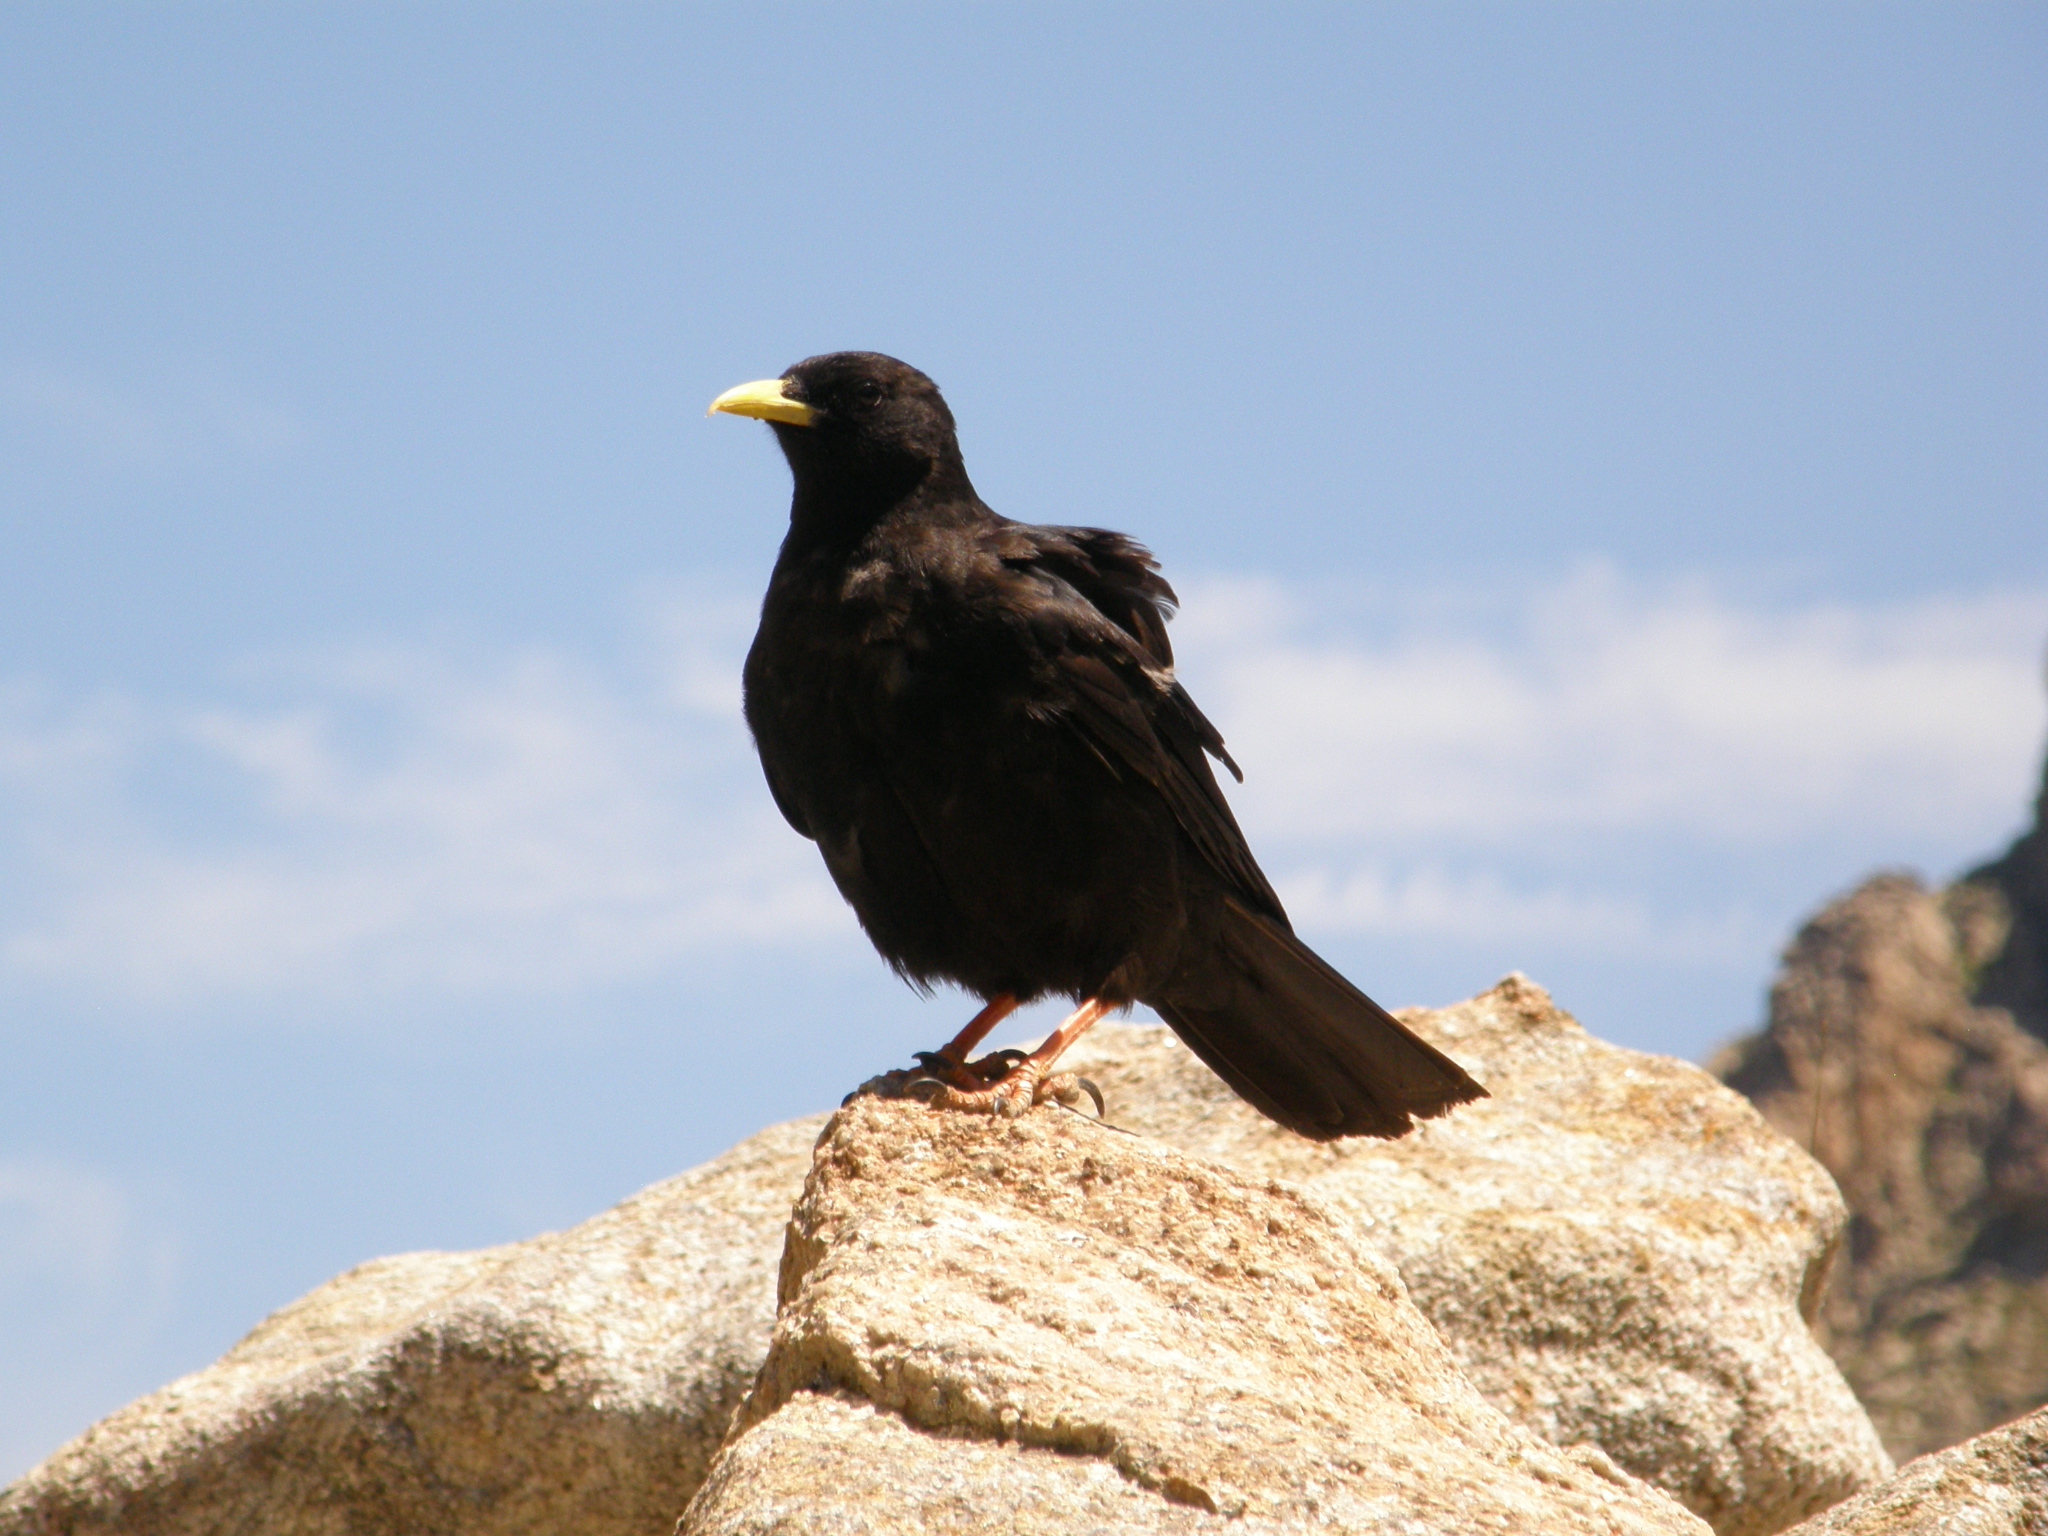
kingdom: Animalia
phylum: Chordata
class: Aves
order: Passeriformes
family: Corvidae
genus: Pyrrhocorax
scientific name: Pyrrhocorax graculus
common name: Alpine chough
